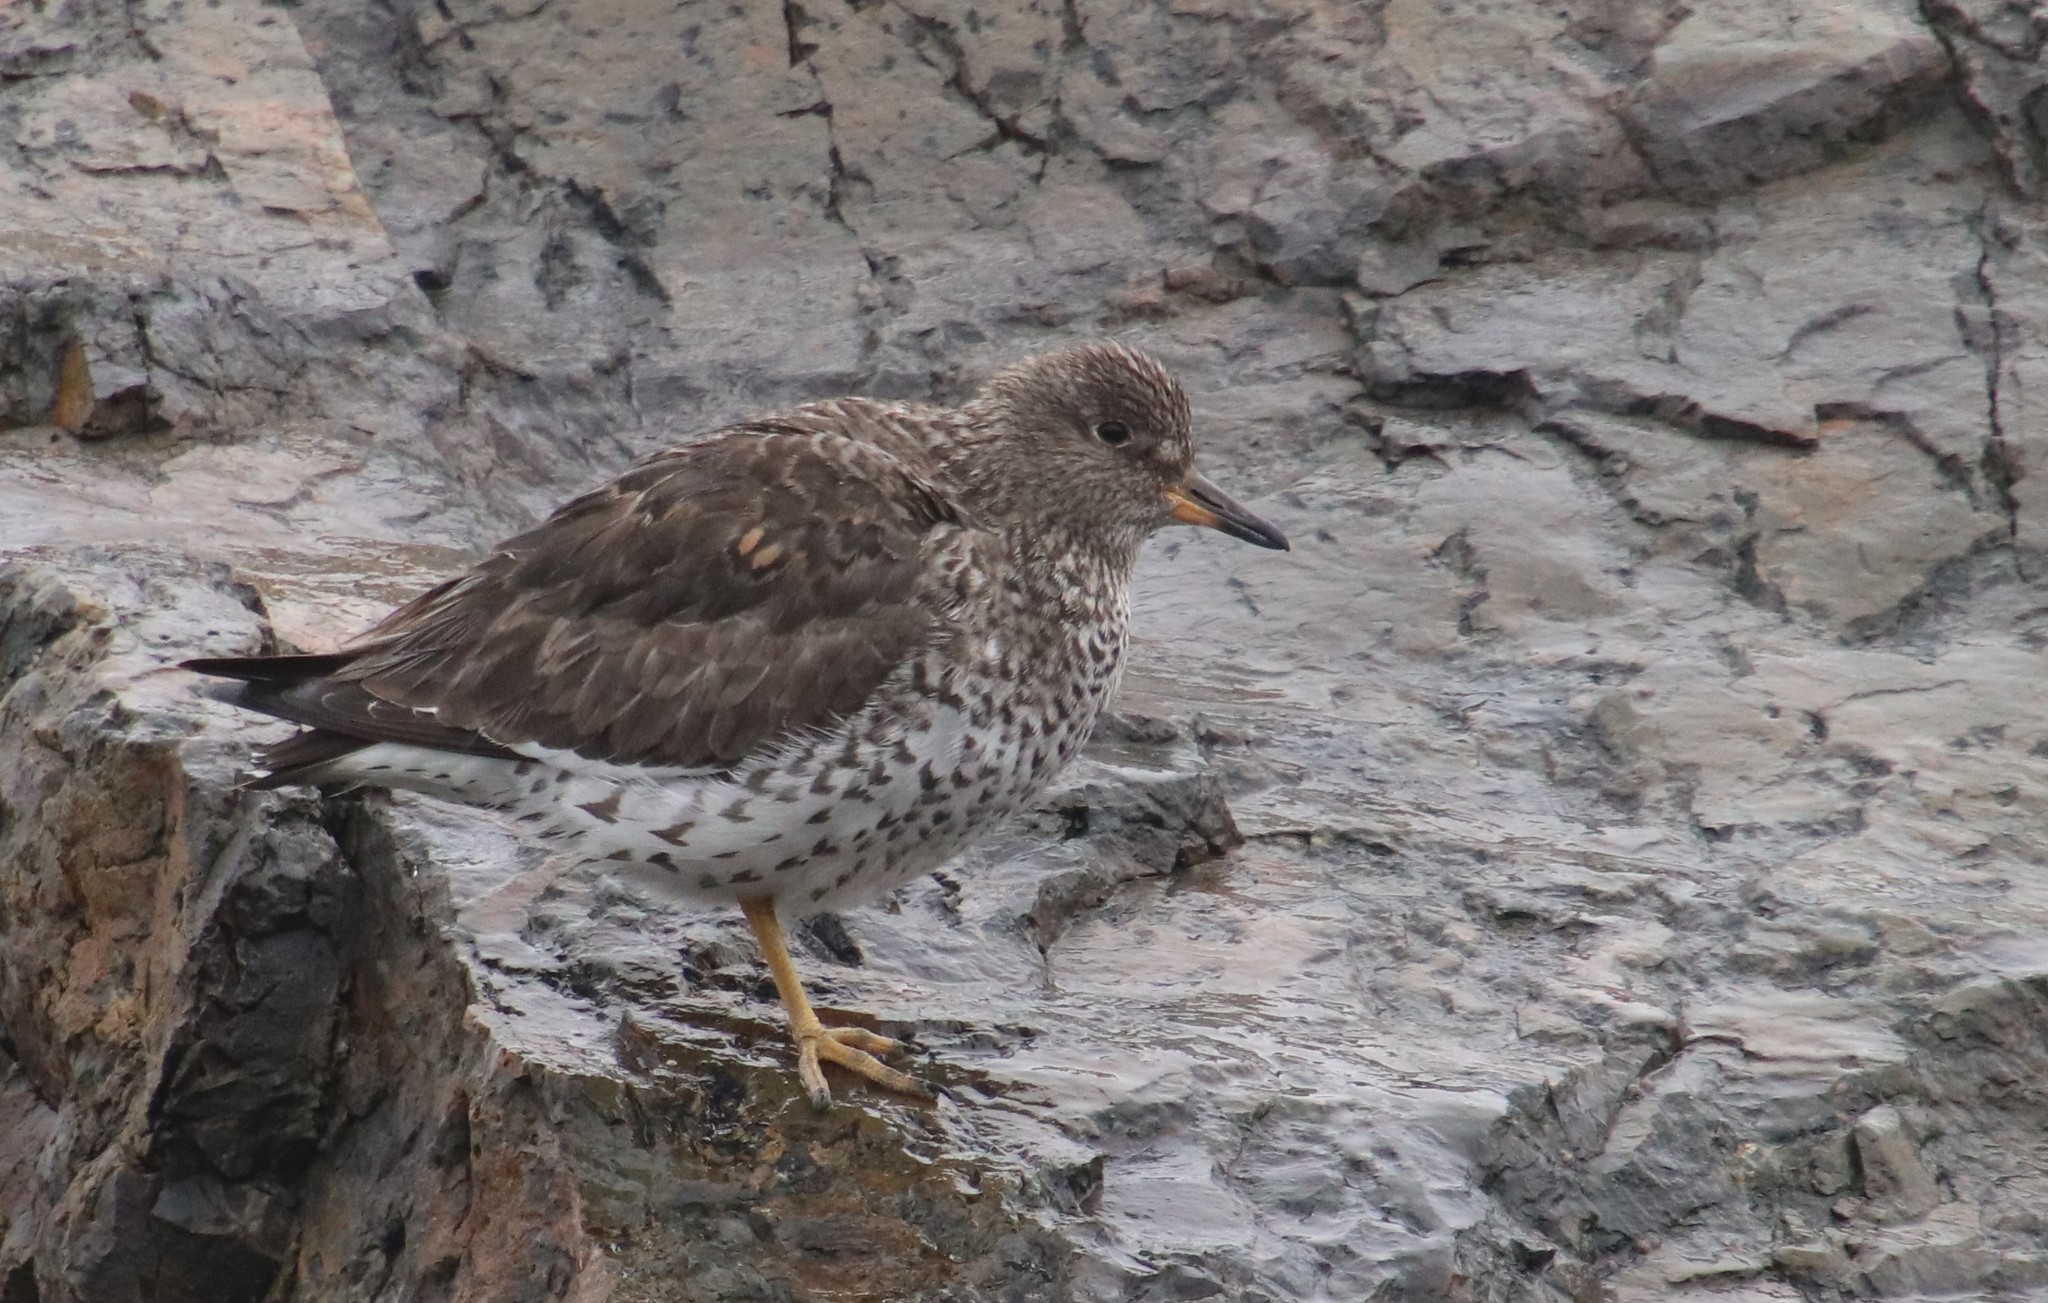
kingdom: Animalia
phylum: Chordata
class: Aves
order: Charadriiformes
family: Scolopacidae
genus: Calidris
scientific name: Calidris virgata
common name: Surfbird
